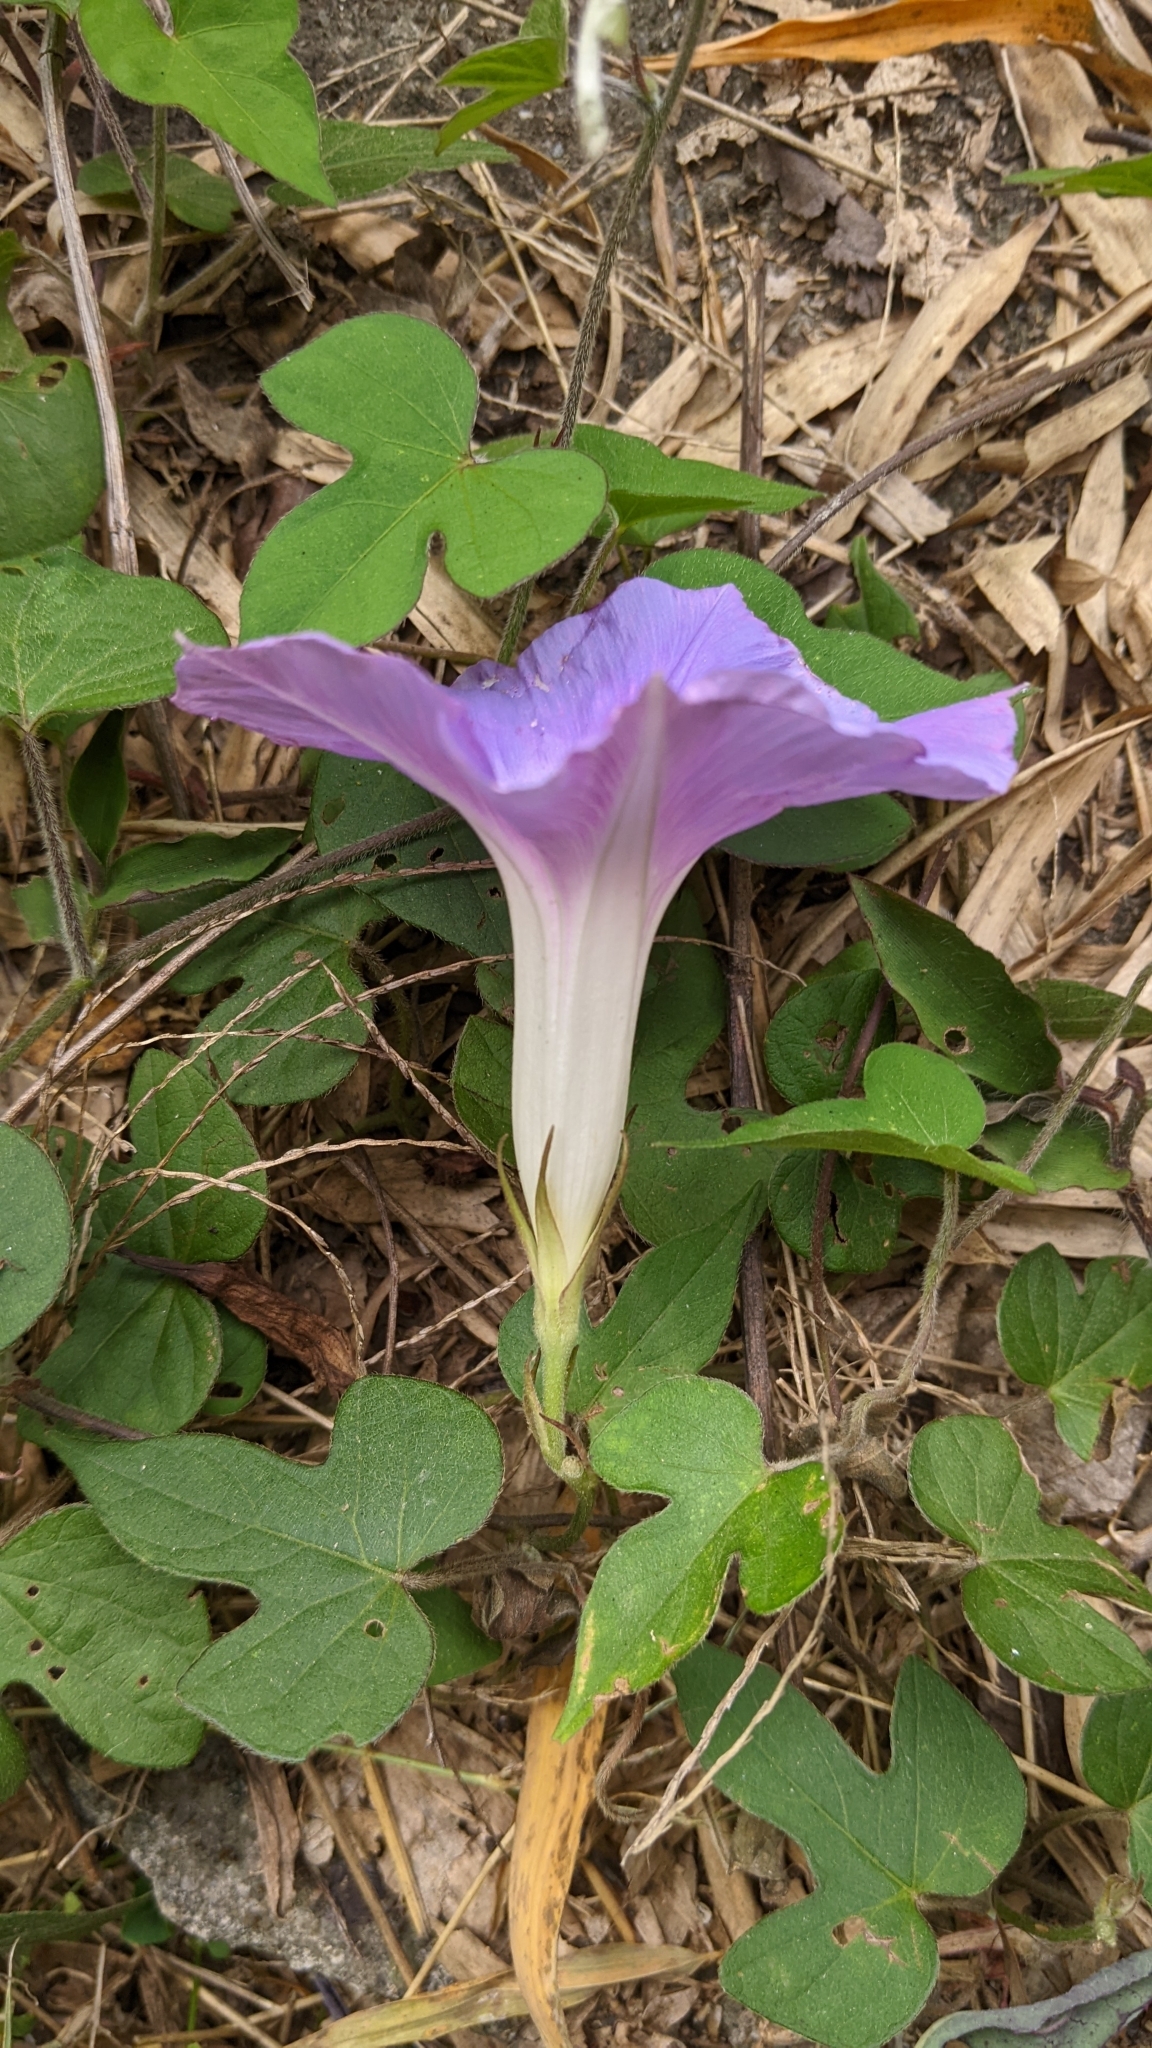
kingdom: Plantae
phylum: Tracheophyta
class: Magnoliopsida
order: Solanales
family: Convolvulaceae
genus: Ipomoea
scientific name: Ipomoea indica
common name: Blue dawnflower
